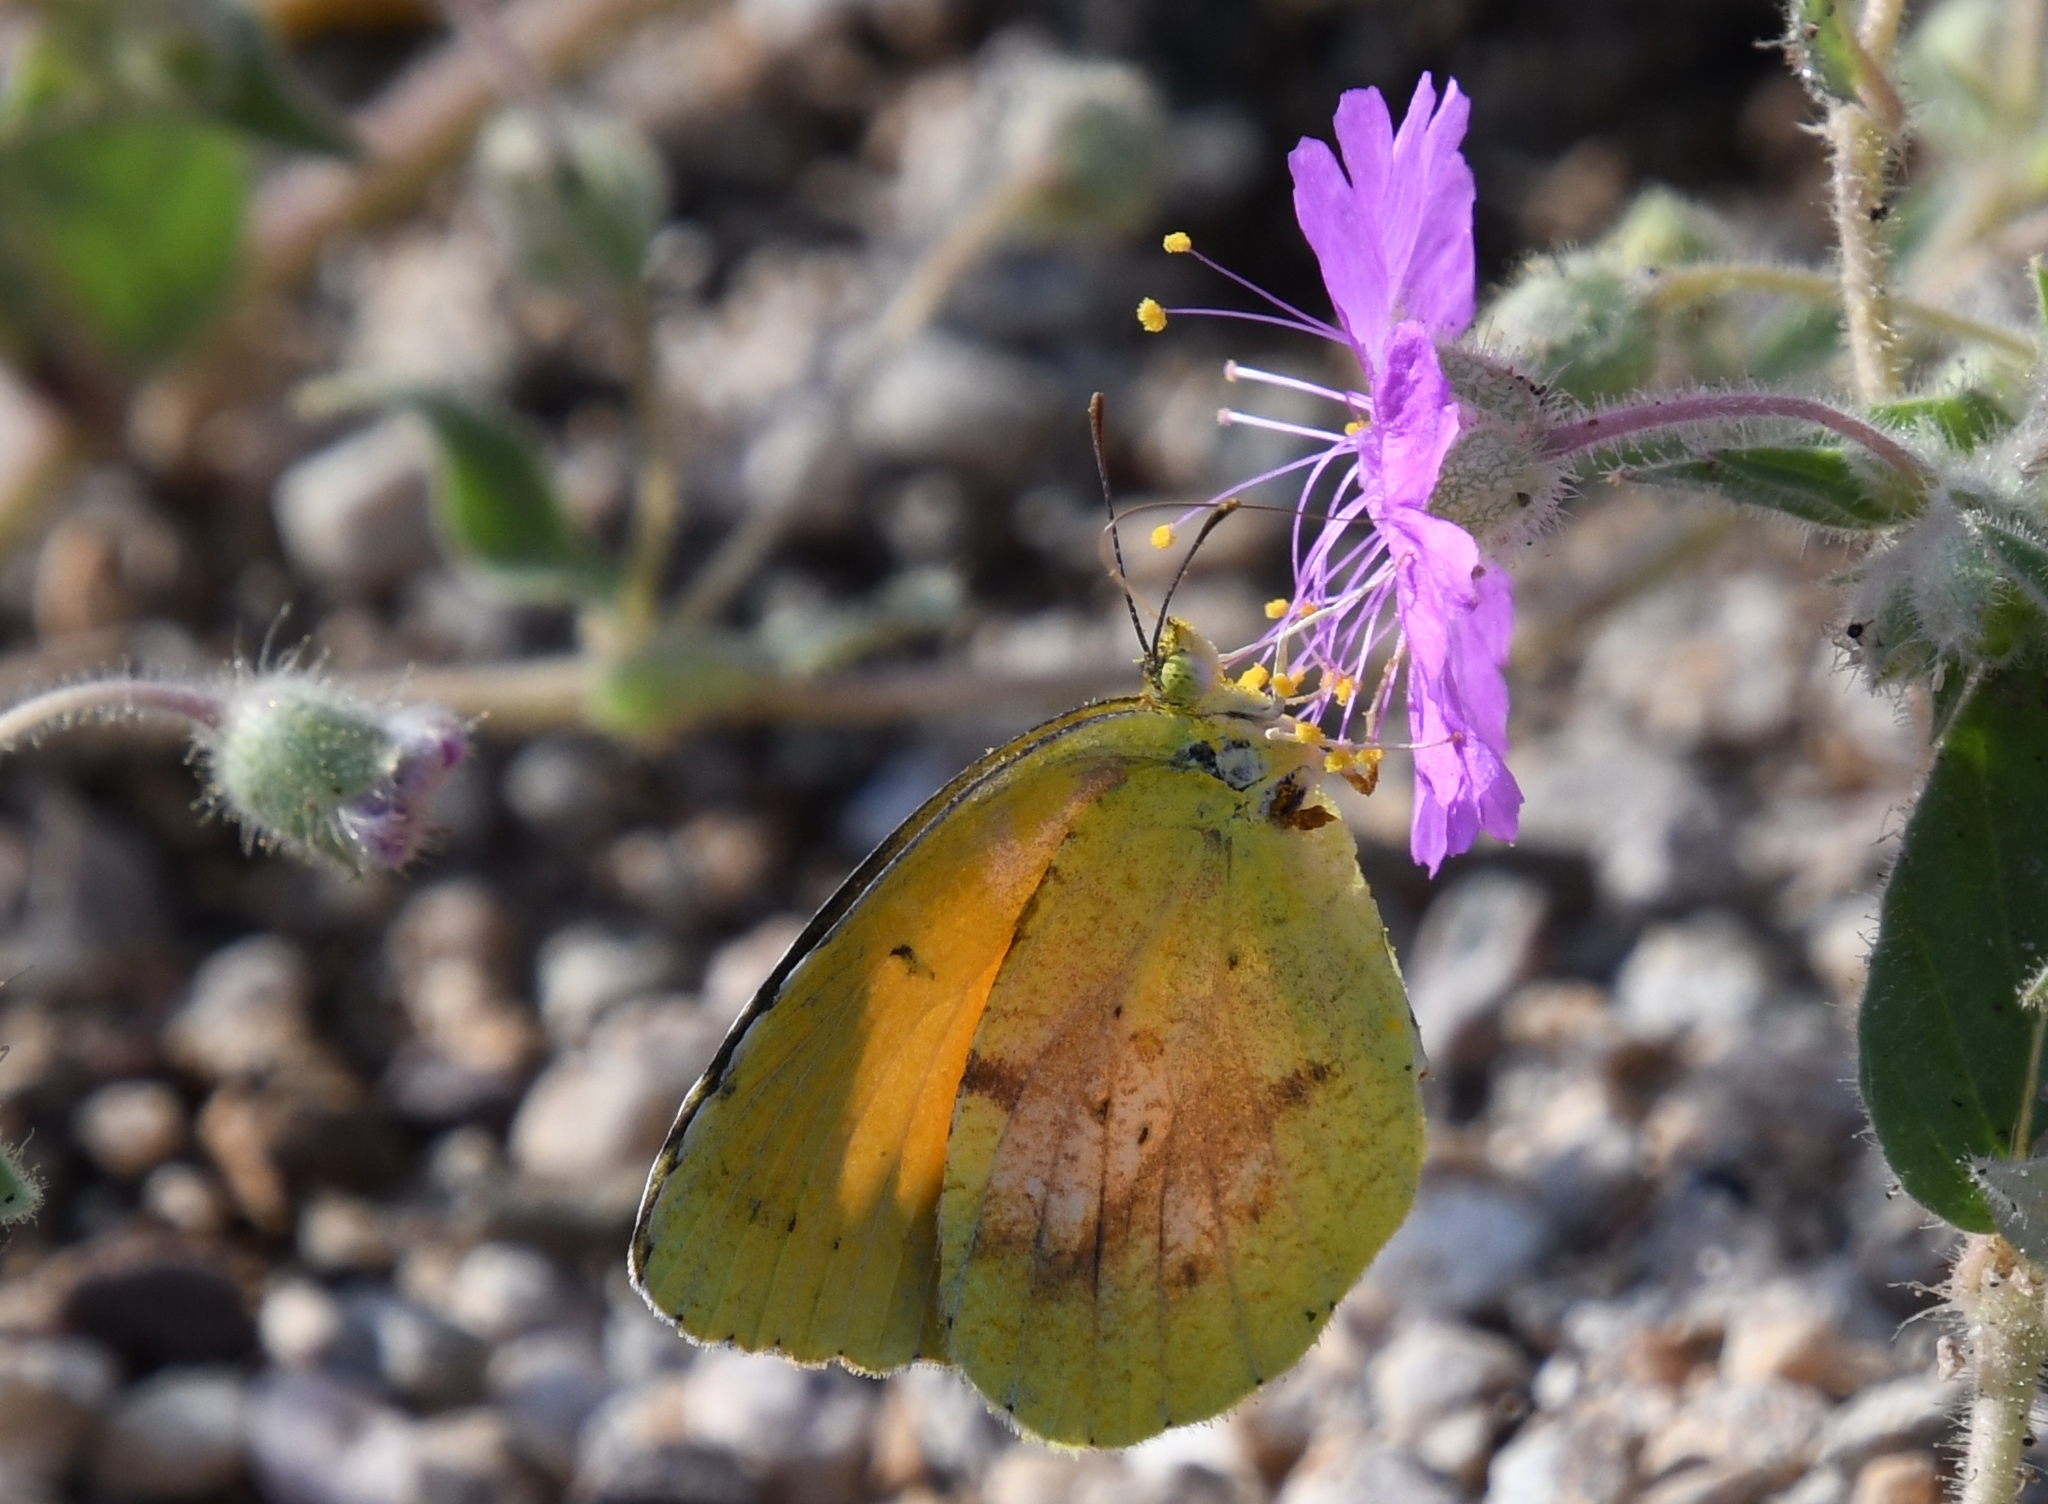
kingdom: Animalia
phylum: Arthropoda
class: Insecta
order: Lepidoptera
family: Pieridae
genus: Abaeis
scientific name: Abaeis nicippe
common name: Sleepy orange
